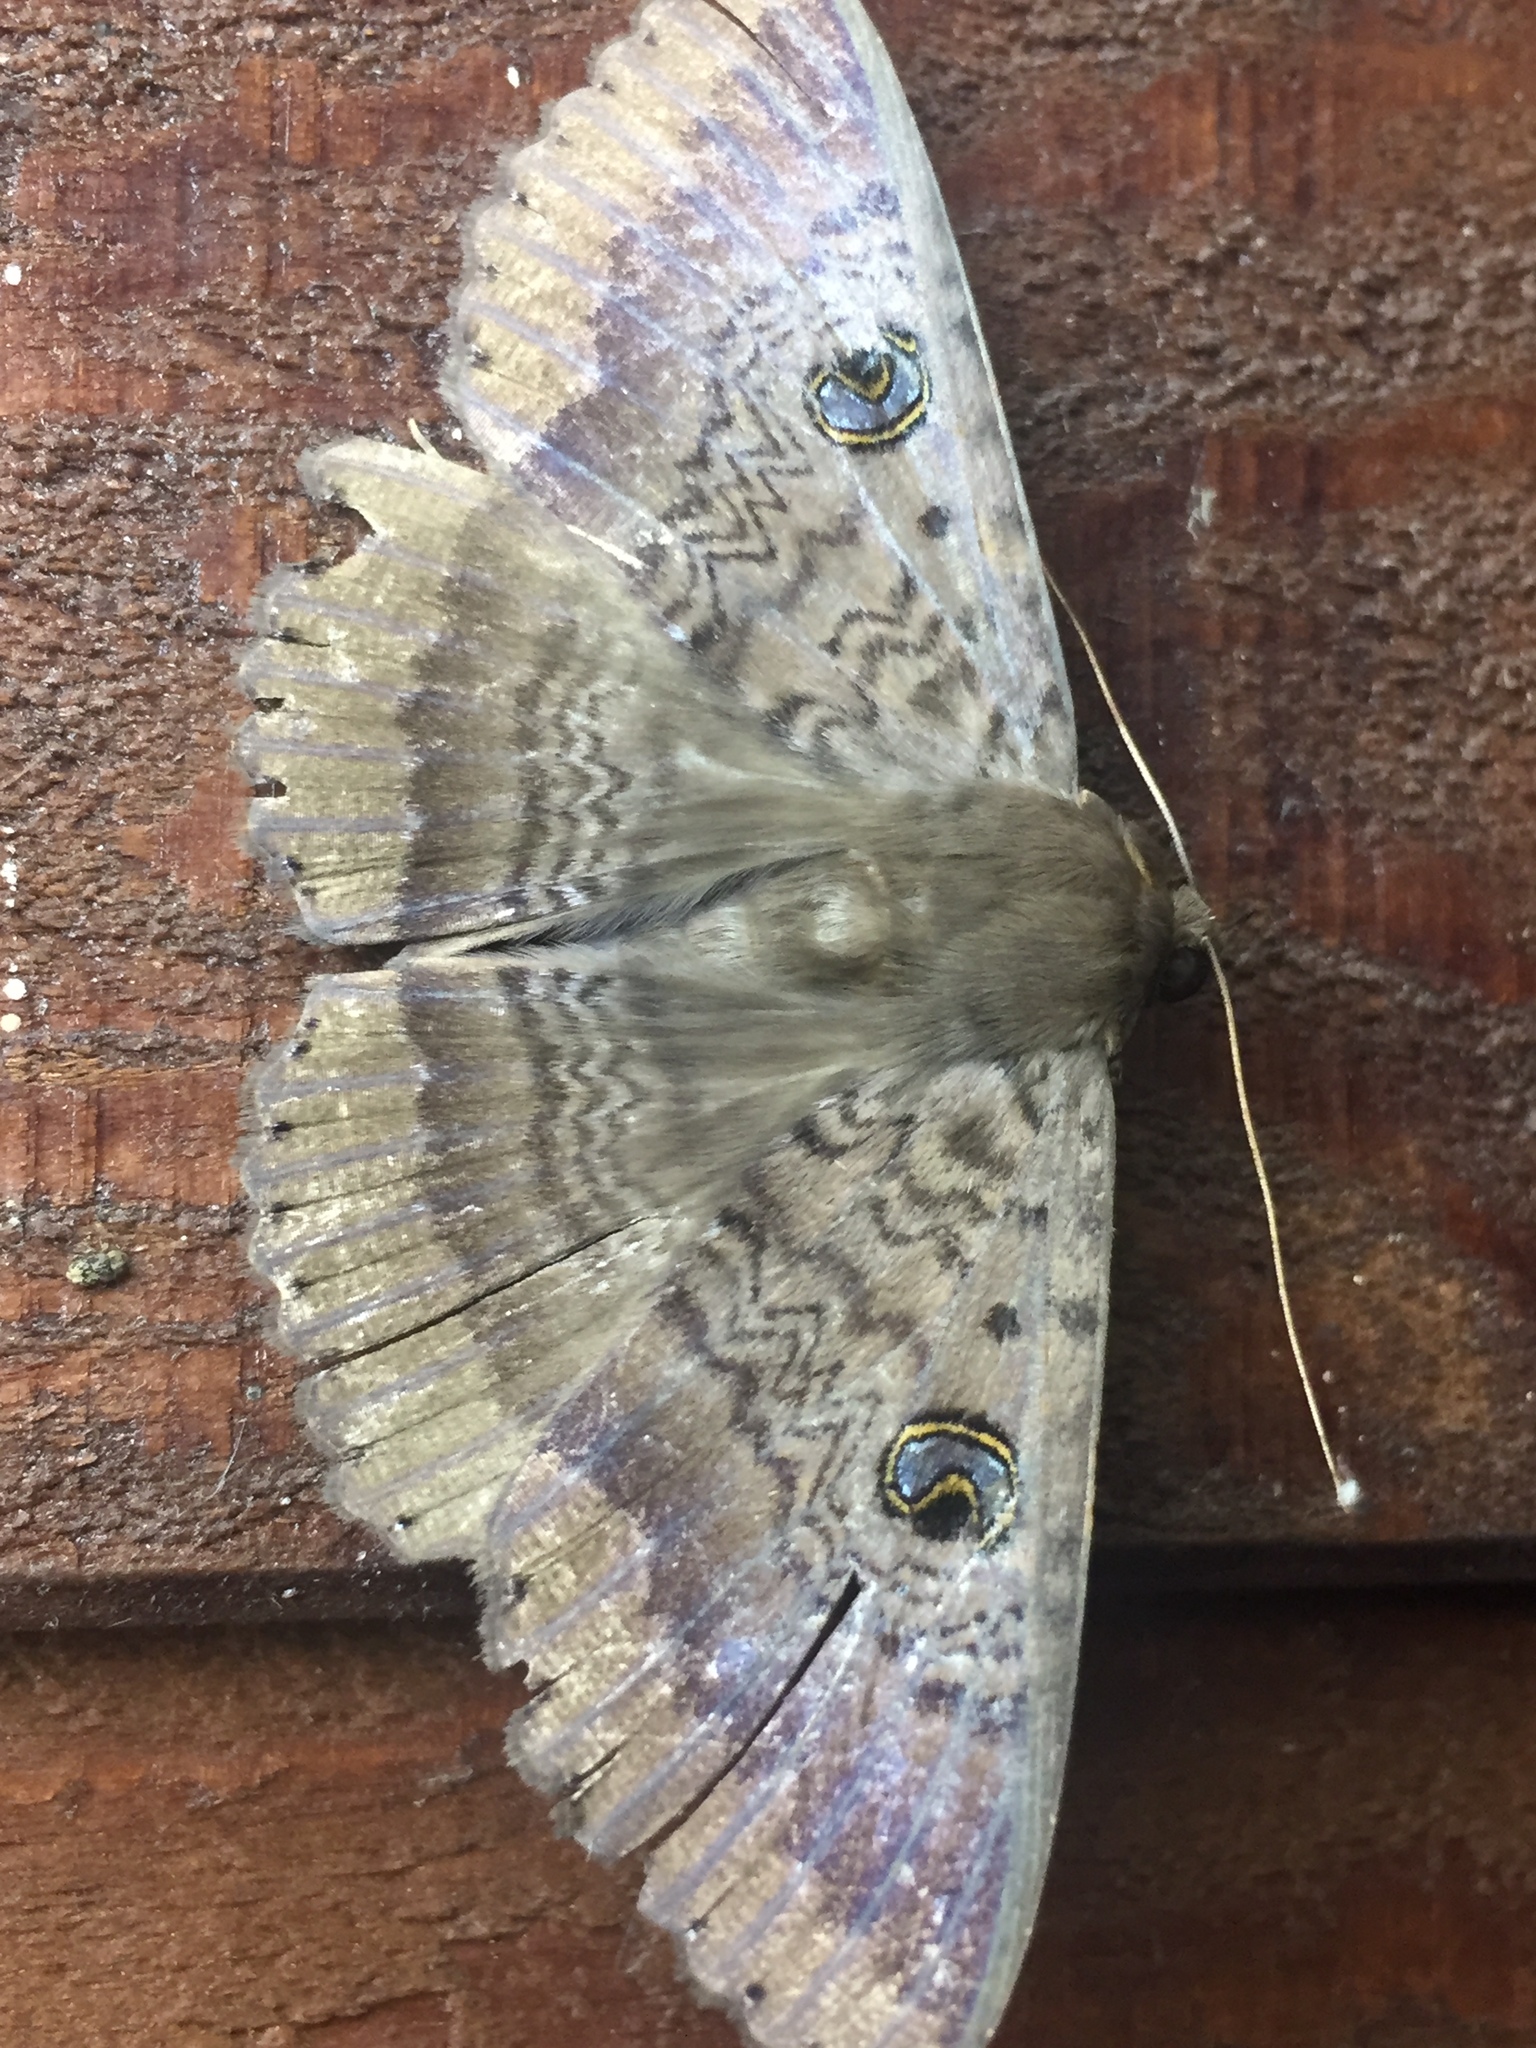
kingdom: Animalia
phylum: Arthropoda
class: Insecta
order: Lepidoptera
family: Erebidae
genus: Dasypodia
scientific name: Dasypodia cymatodes
